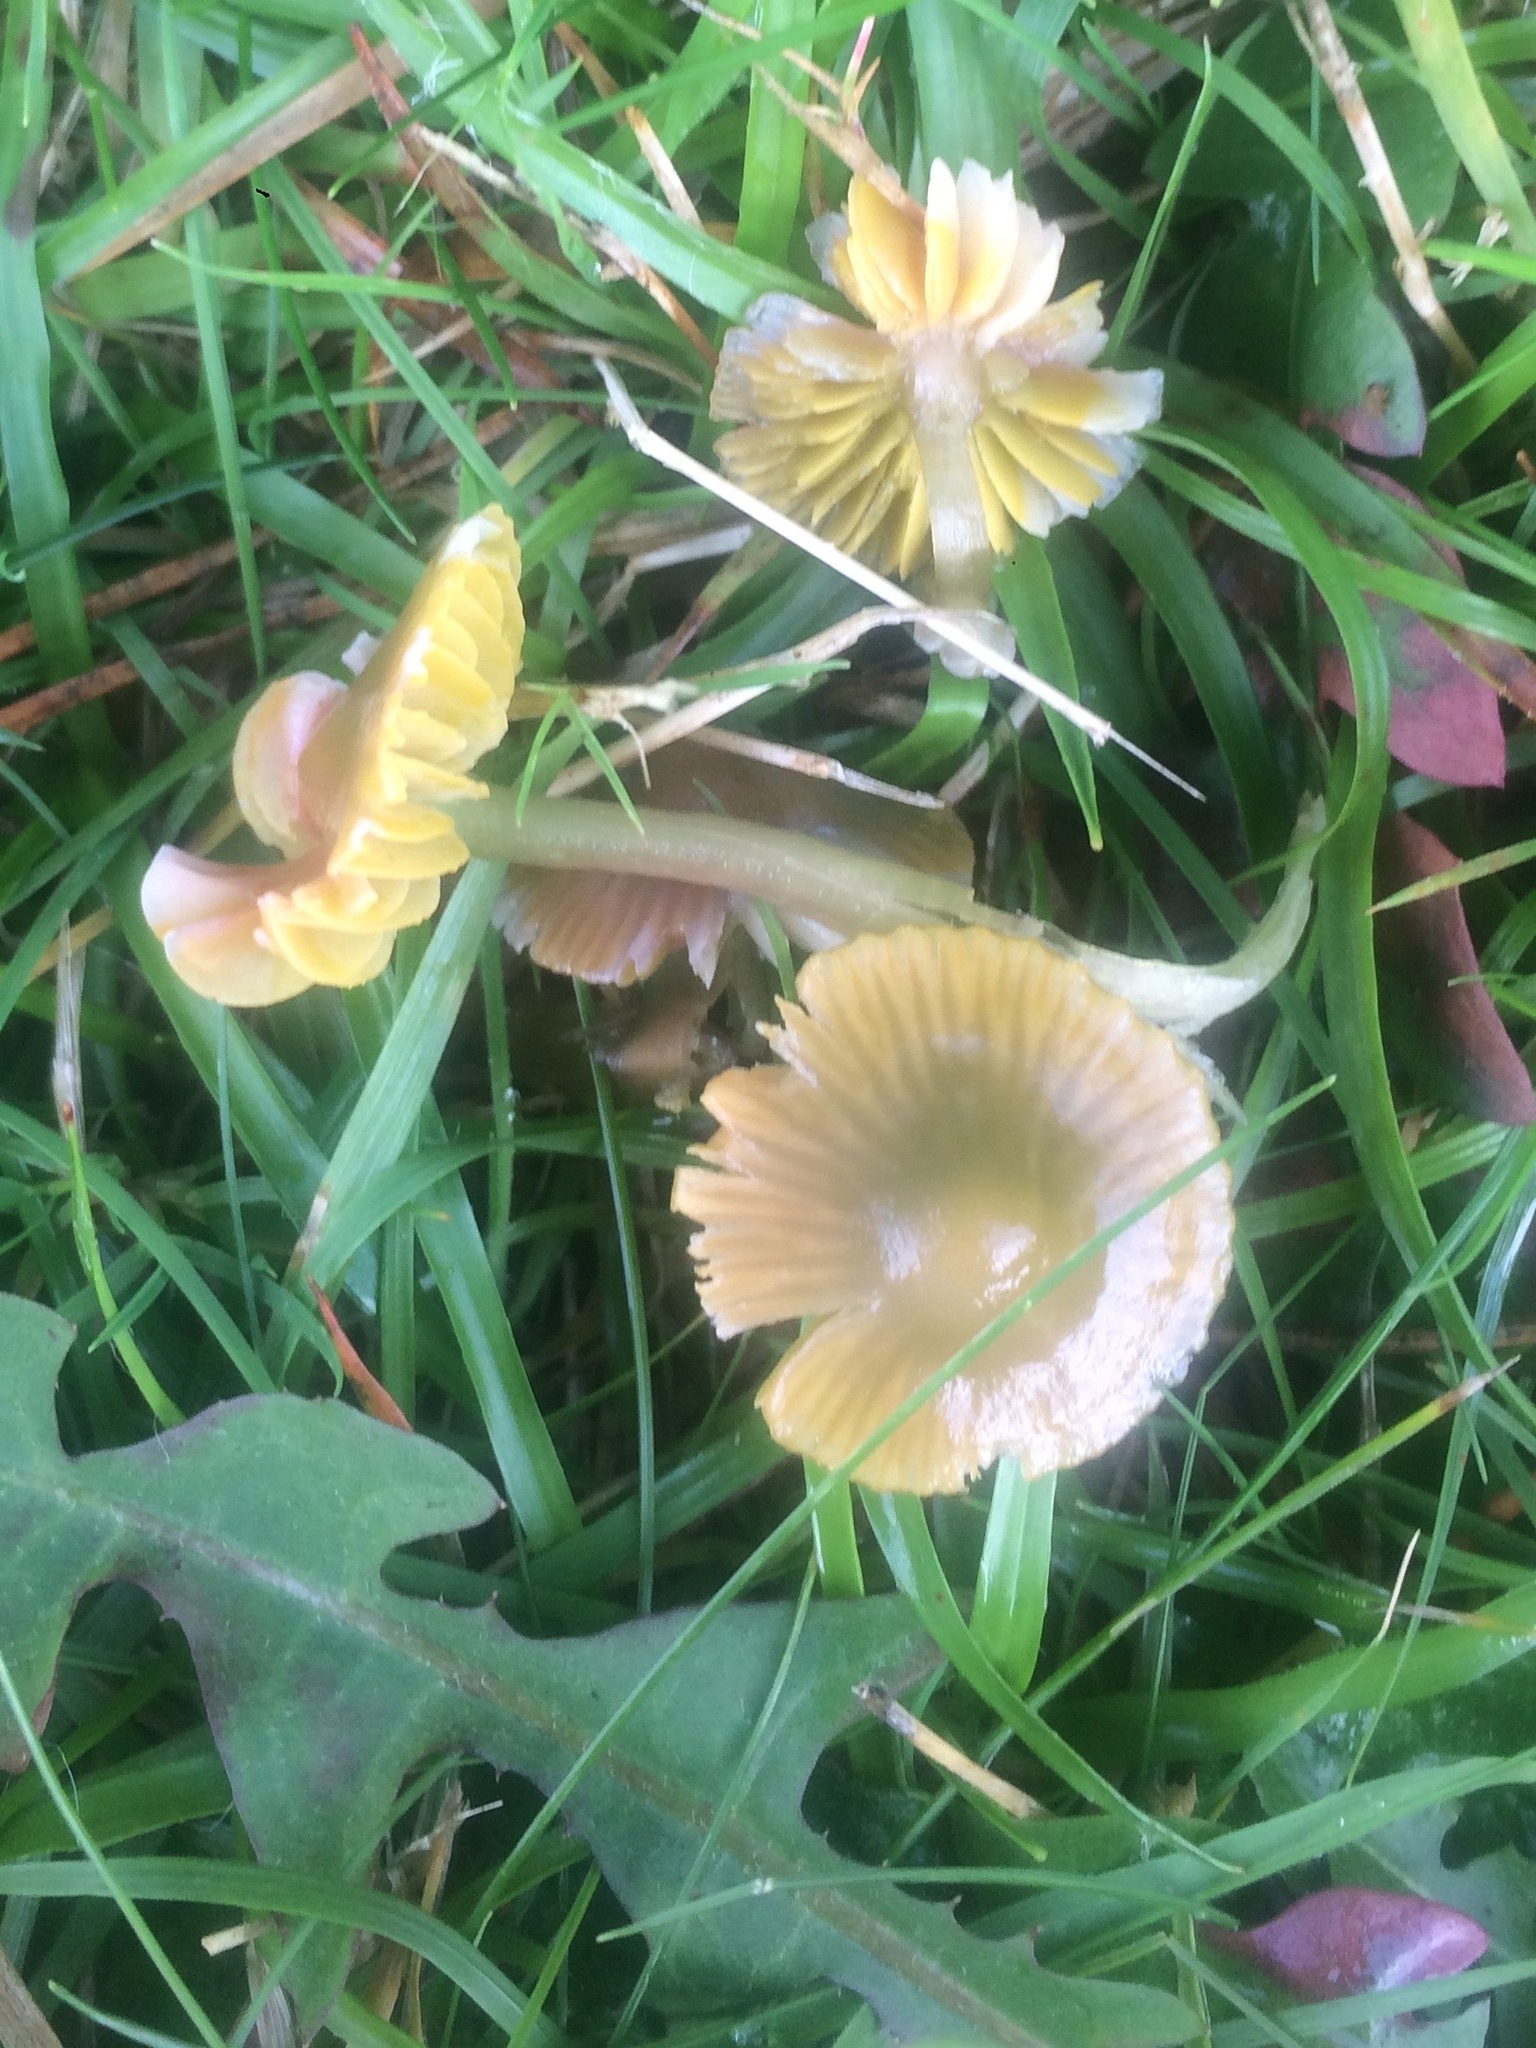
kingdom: Fungi
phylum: Basidiomycota
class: Agaricomycetes
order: Agaricales
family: Hygrophoraceae
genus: Gliophorus
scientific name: Gliophorus psittacinus
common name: Parrot wax-cap
